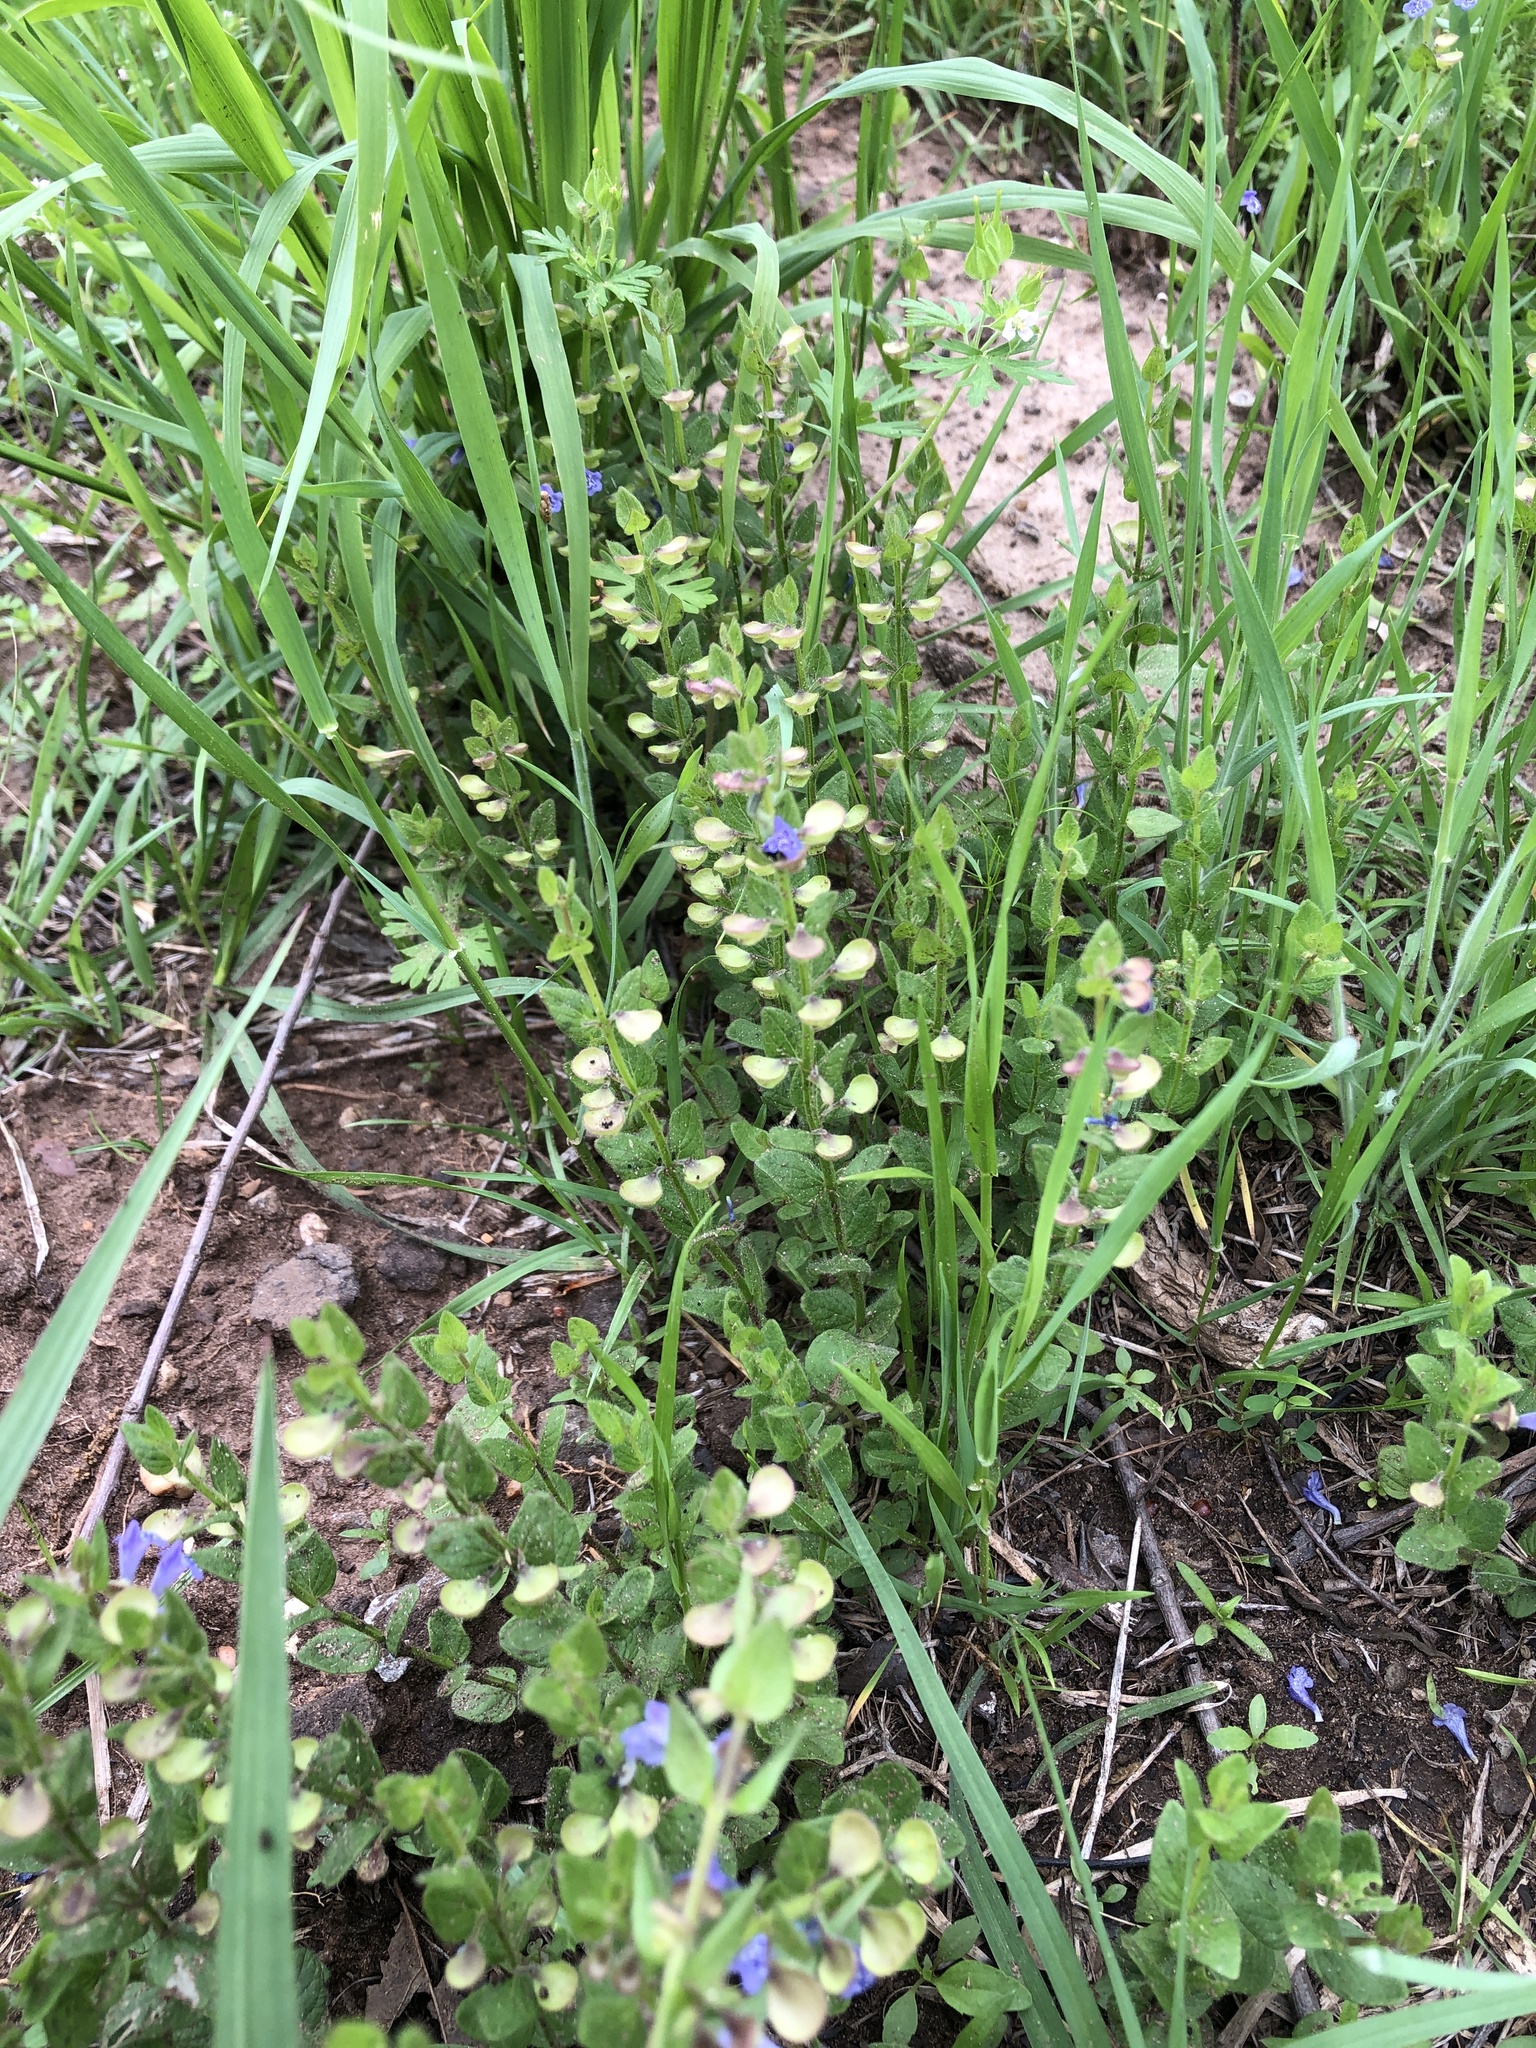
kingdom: Plantae
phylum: Tracheophyta
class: Magnoliopsida
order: Lamiales
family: Lamiaceae
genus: Scutellaria
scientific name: Scutellaria parvula
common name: Little scullcap
